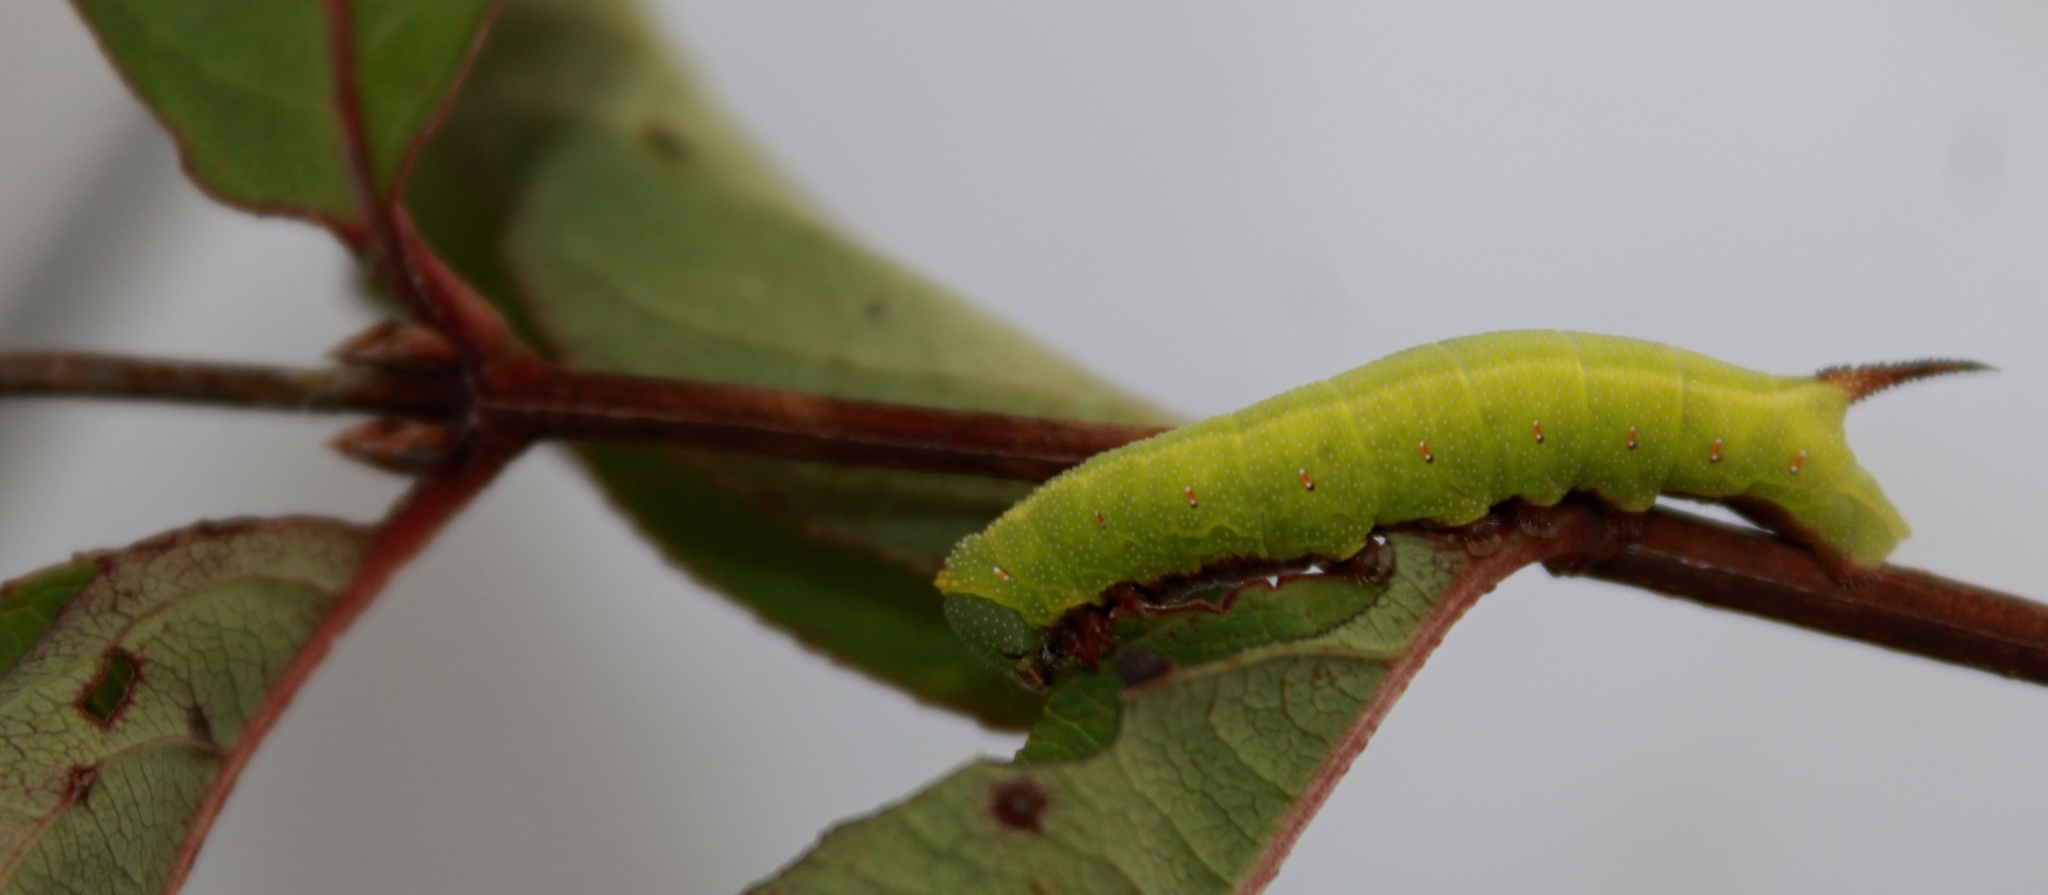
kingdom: Animalia
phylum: Arthropoda
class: Insecta
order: Lepidoptera
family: Sphingidae
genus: Hemaris
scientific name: Hemaris diffinis
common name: Bumblebee moth
